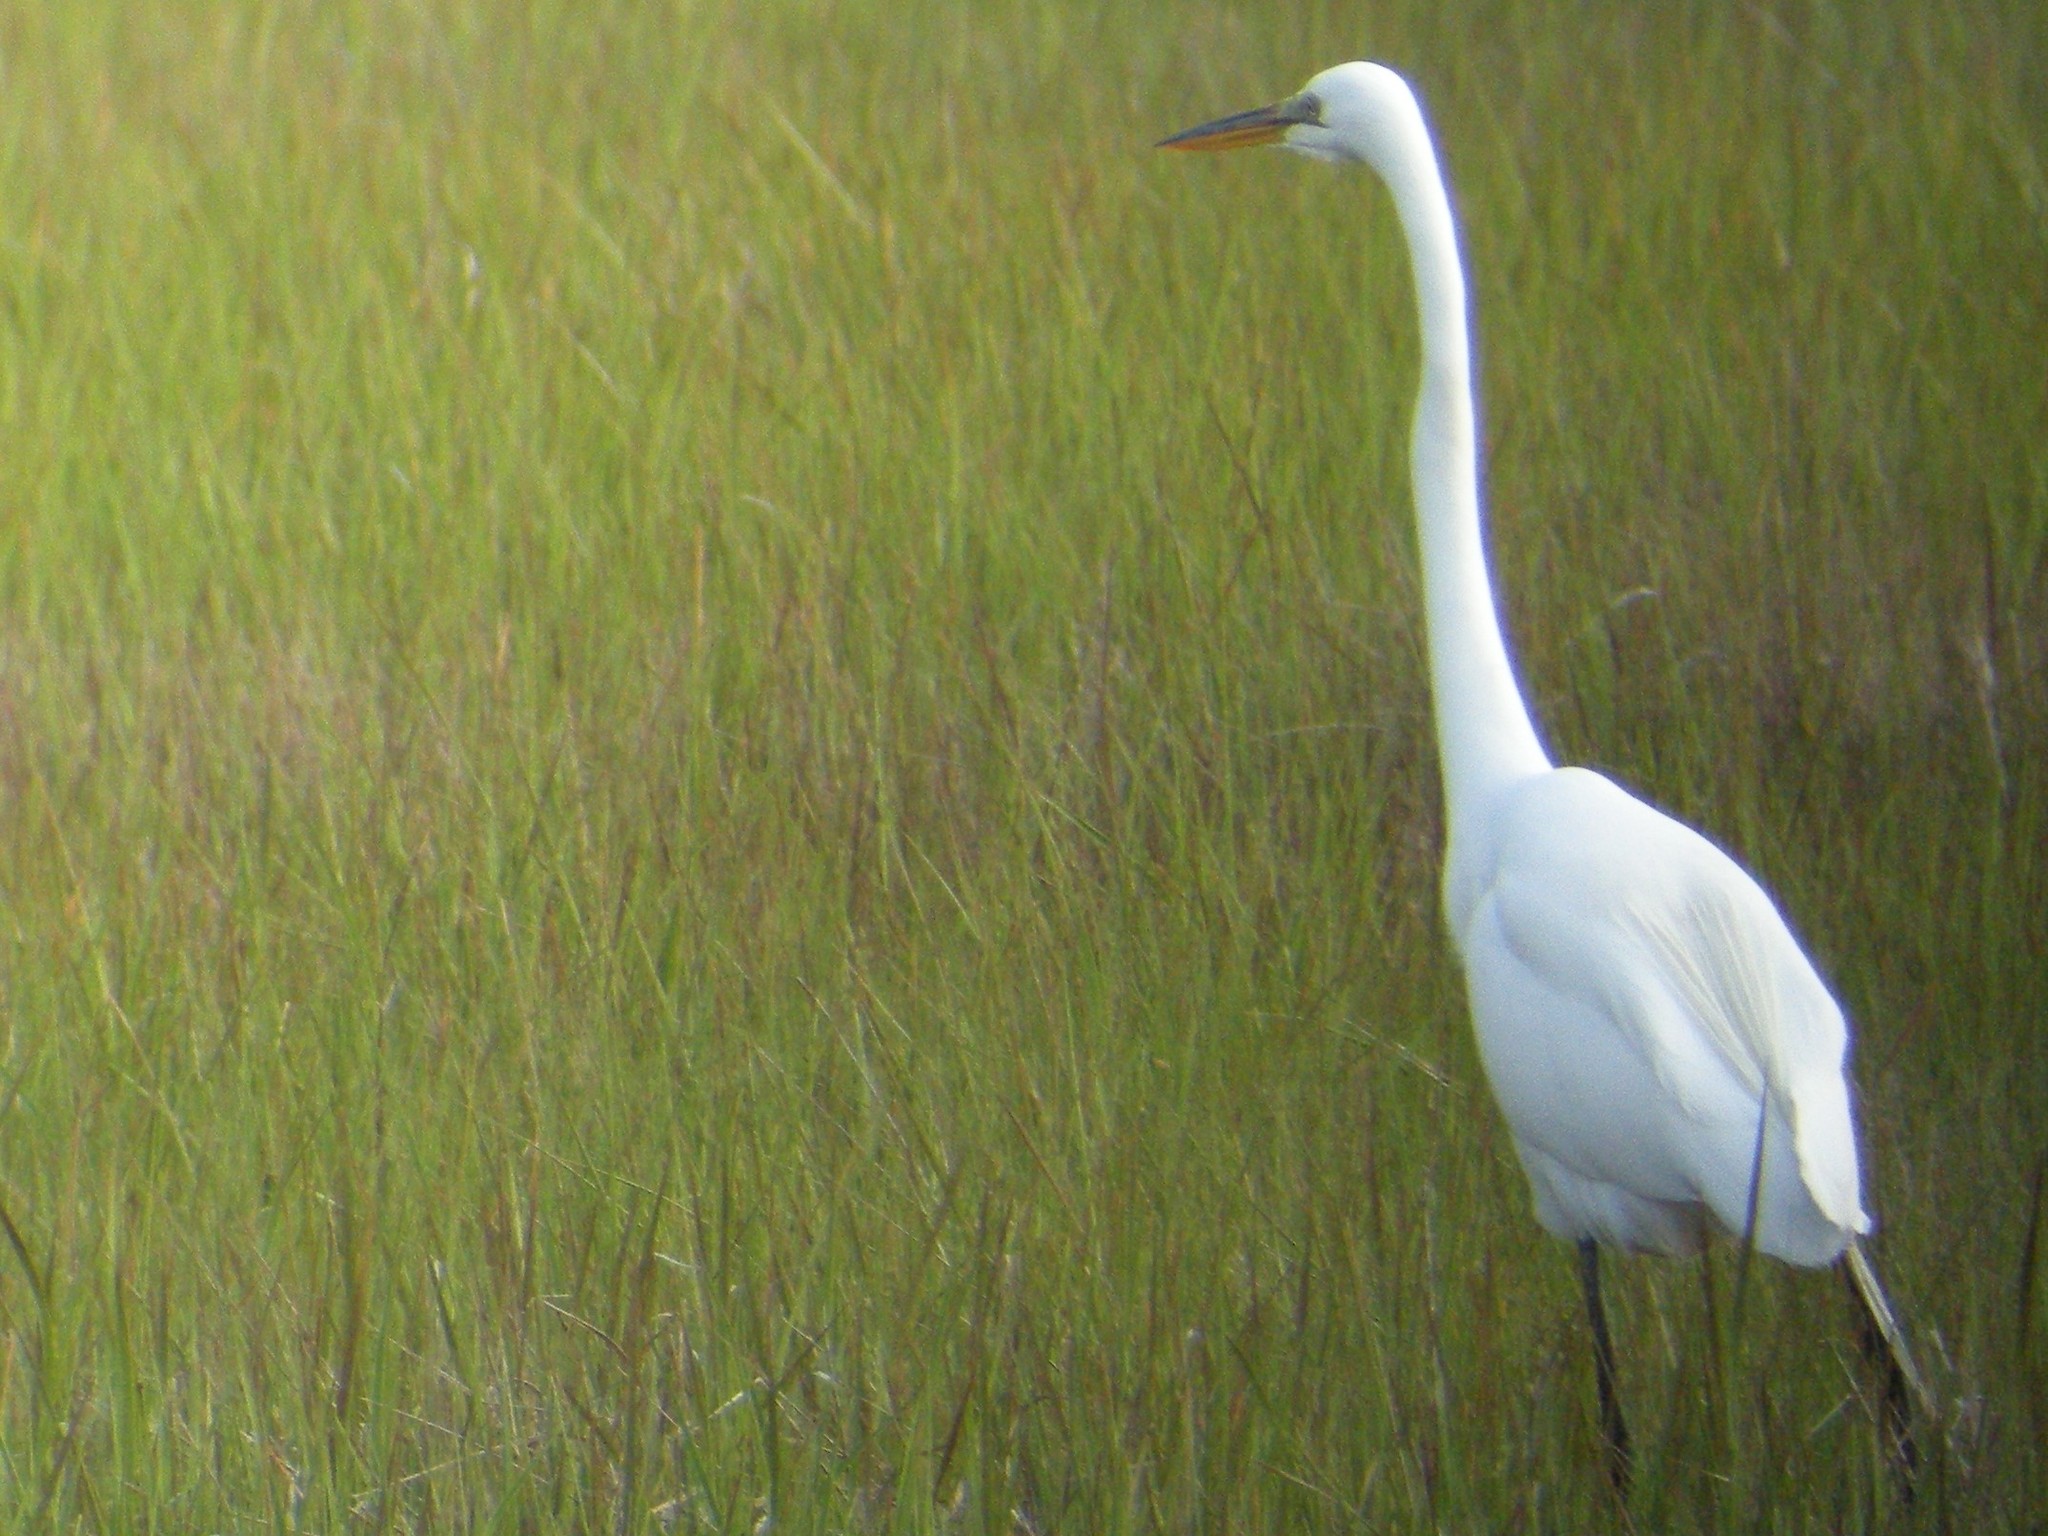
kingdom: Animalia
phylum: Chordata
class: Aves
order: Pelecaniformes
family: Ardeidae
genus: Ardea
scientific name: Ardea alba
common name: Great egret
